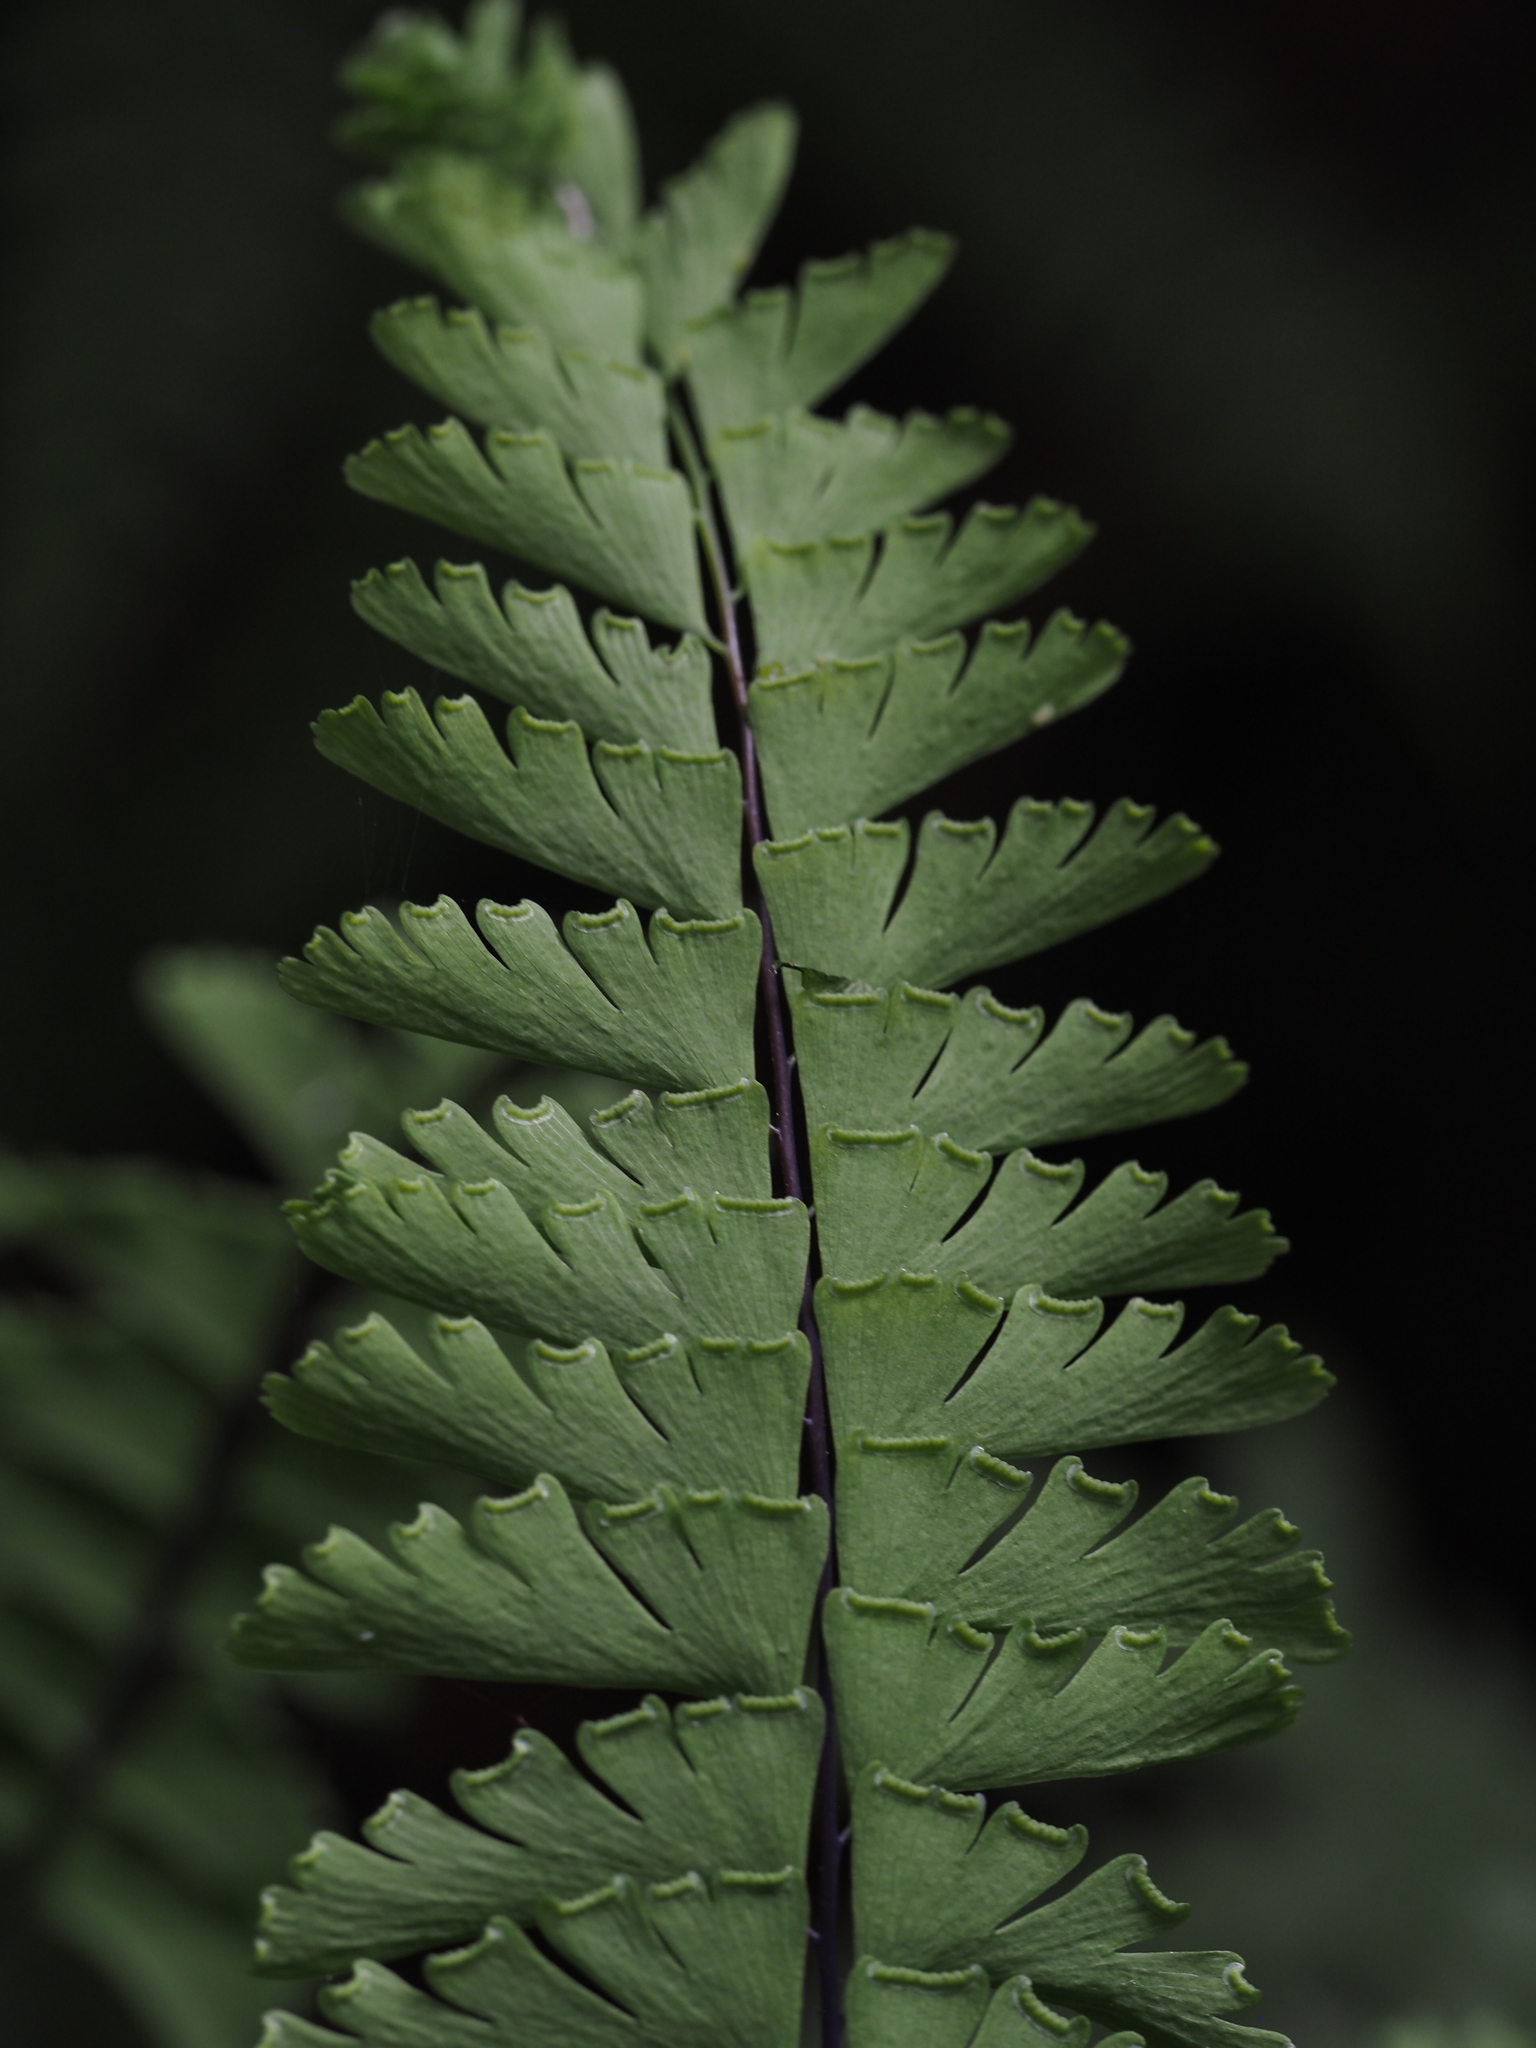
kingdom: Plantae
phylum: Tracheophyta
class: Polypodiopsida
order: Polypodiales
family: Pteridaceae
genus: Adiantum
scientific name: Adiantum aleuticum
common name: Aleutian maidenhair fern
